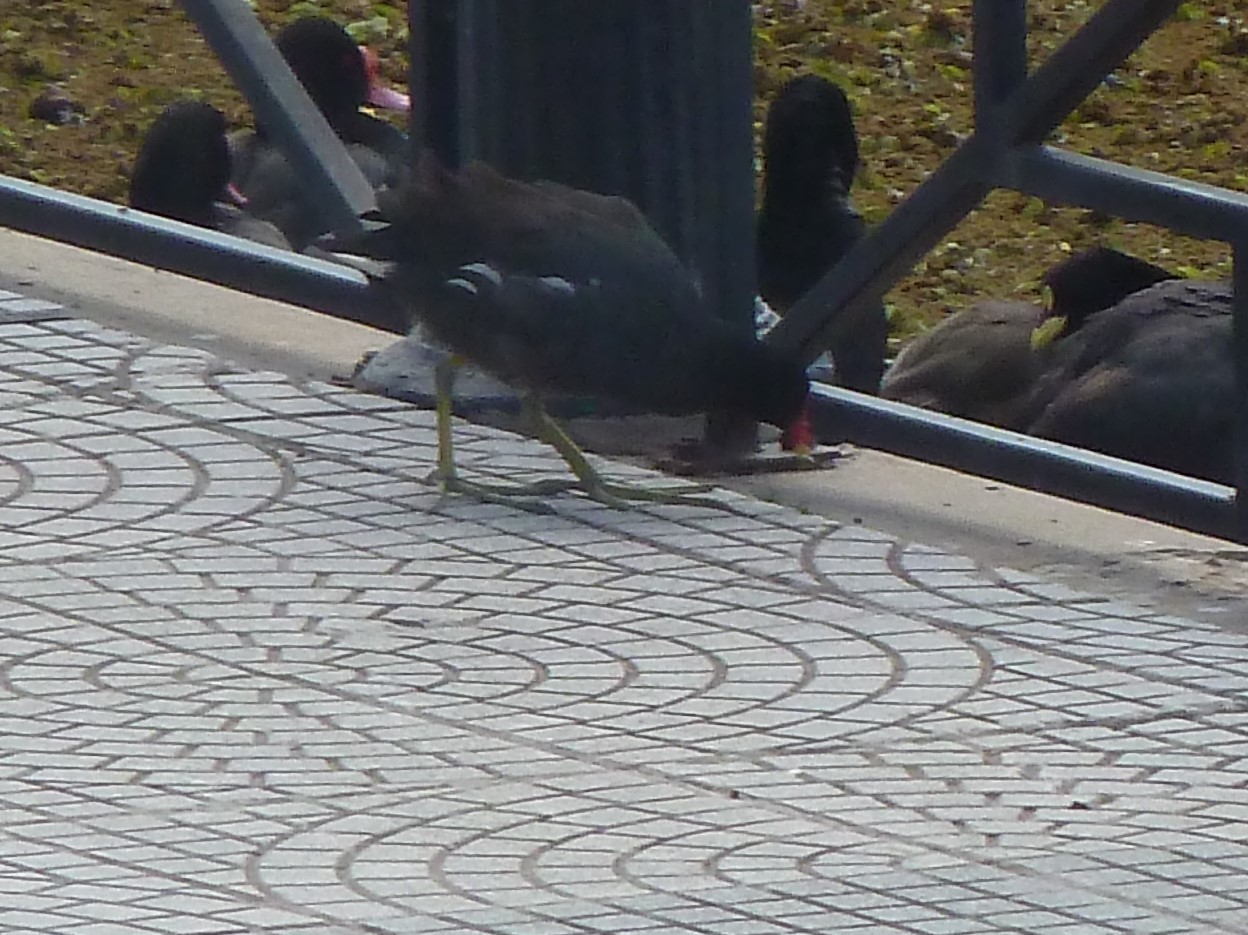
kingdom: Animalia
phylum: Chordata
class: Aves
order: Gruiformes
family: Rallidae
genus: Gallinula
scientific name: Gallinula chloropus
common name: Common moorhen
